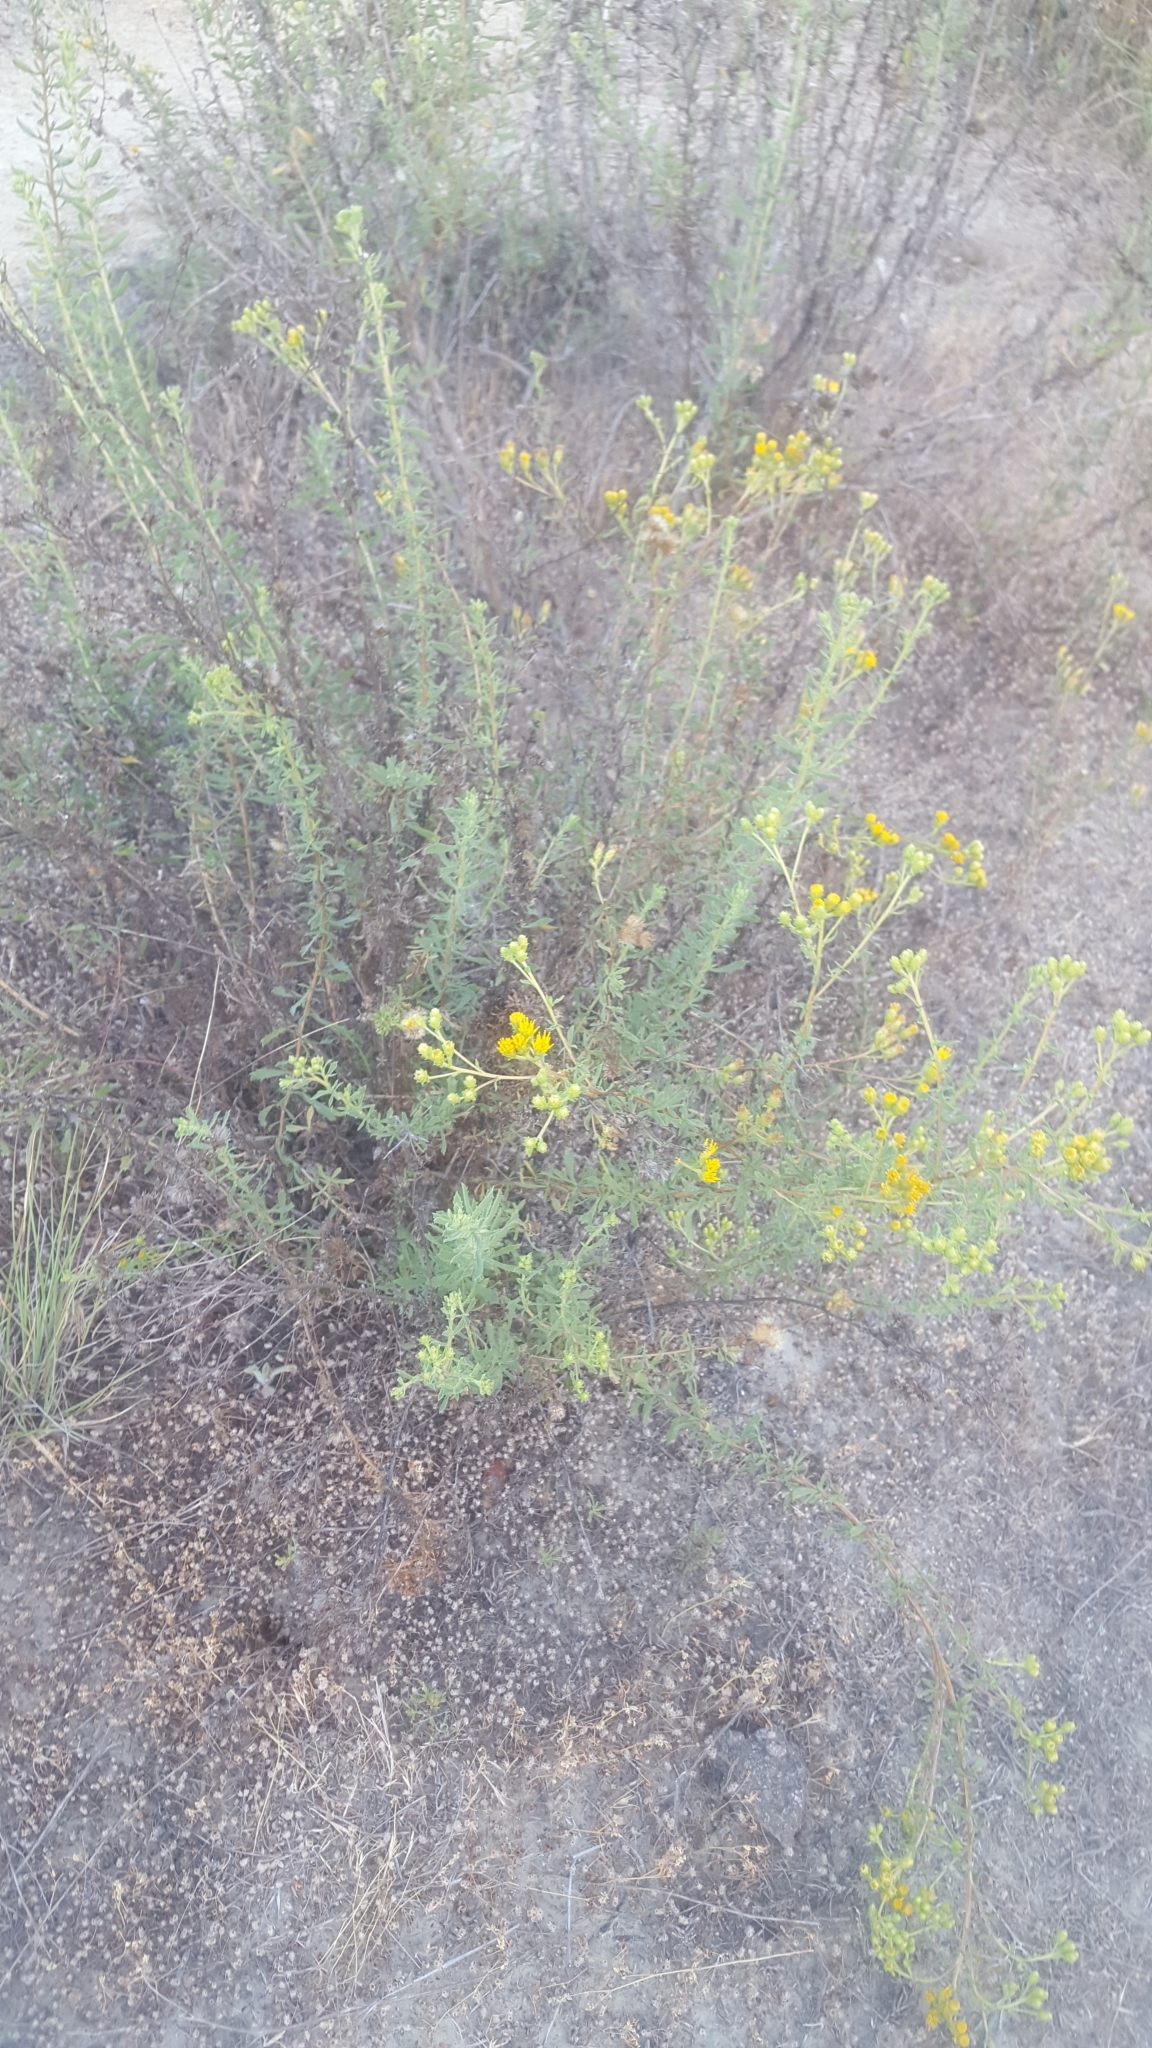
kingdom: Plantae
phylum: Tracheophyta
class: Magnoliopsida
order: Asterales
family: Asteraceae
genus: Isocoma
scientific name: Isocoma menziesii
